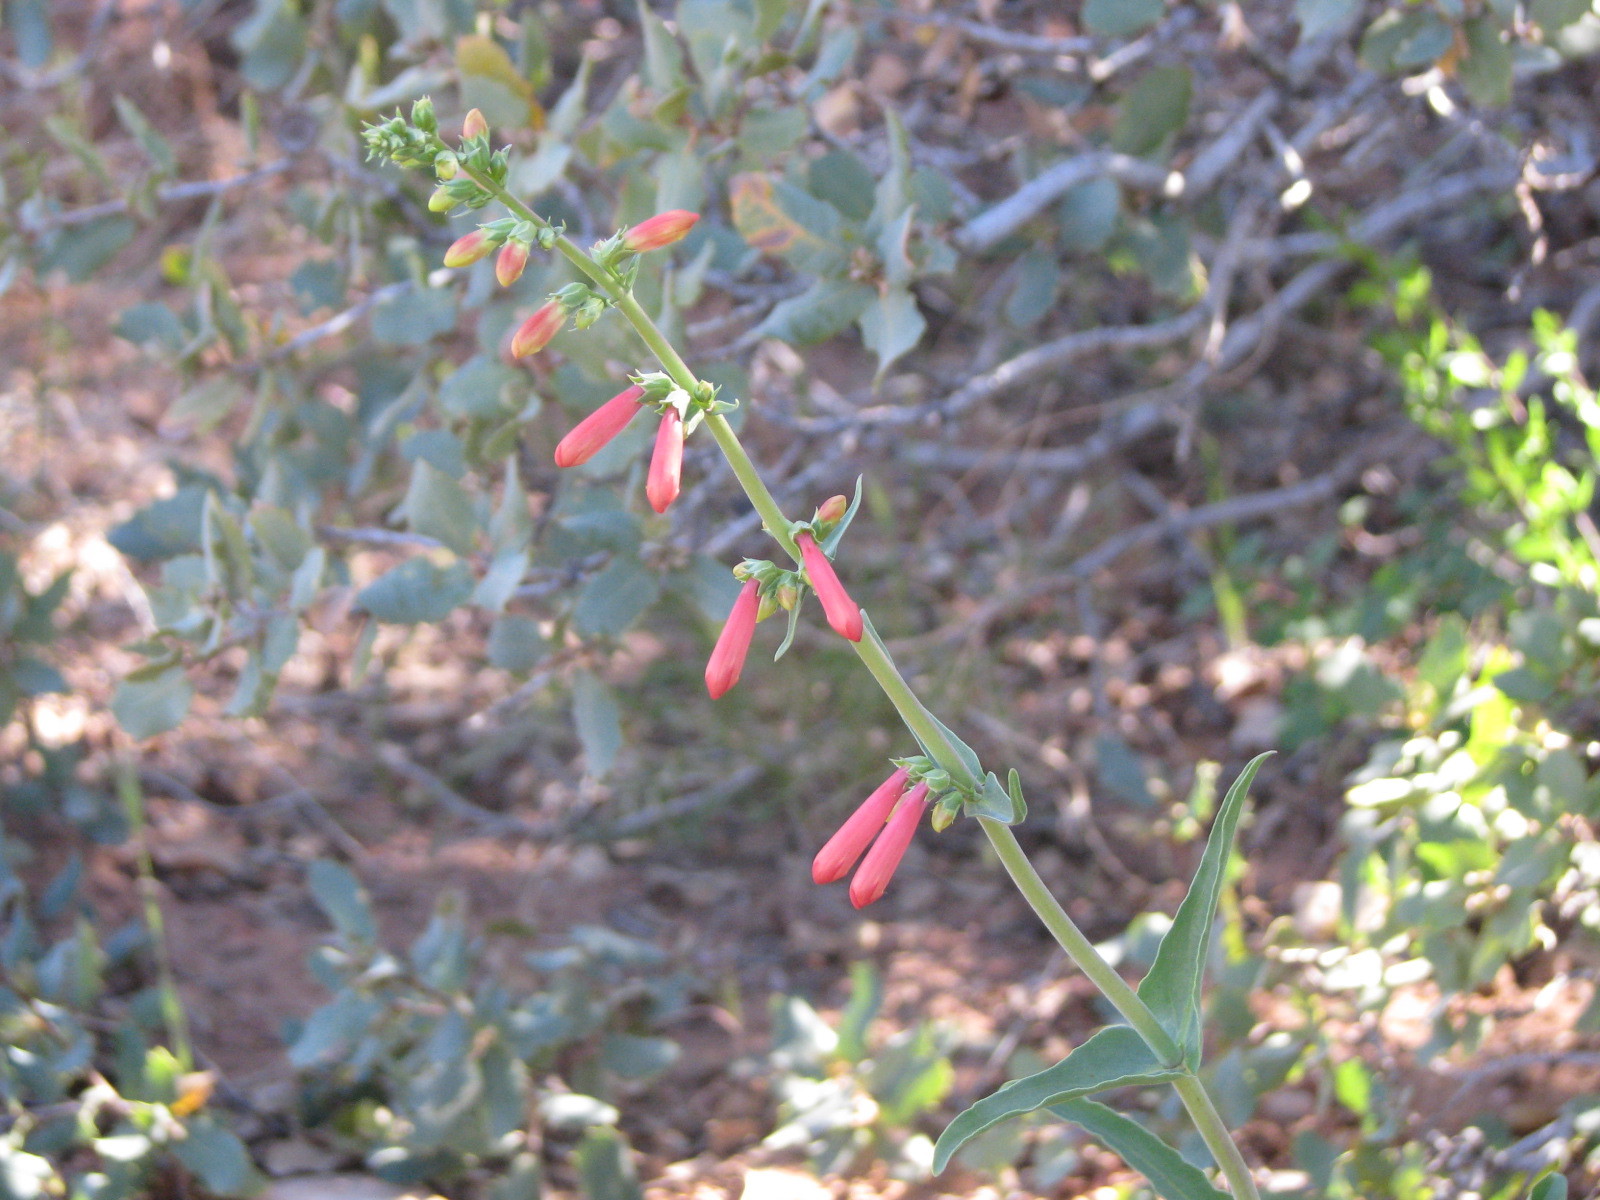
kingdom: Plantae
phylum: Tracheophyta
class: Magnoliopsida
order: Lamiales
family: Plantaginaceae
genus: Penstemon
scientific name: Penstemon eatonii
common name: Eaton's penstemon
